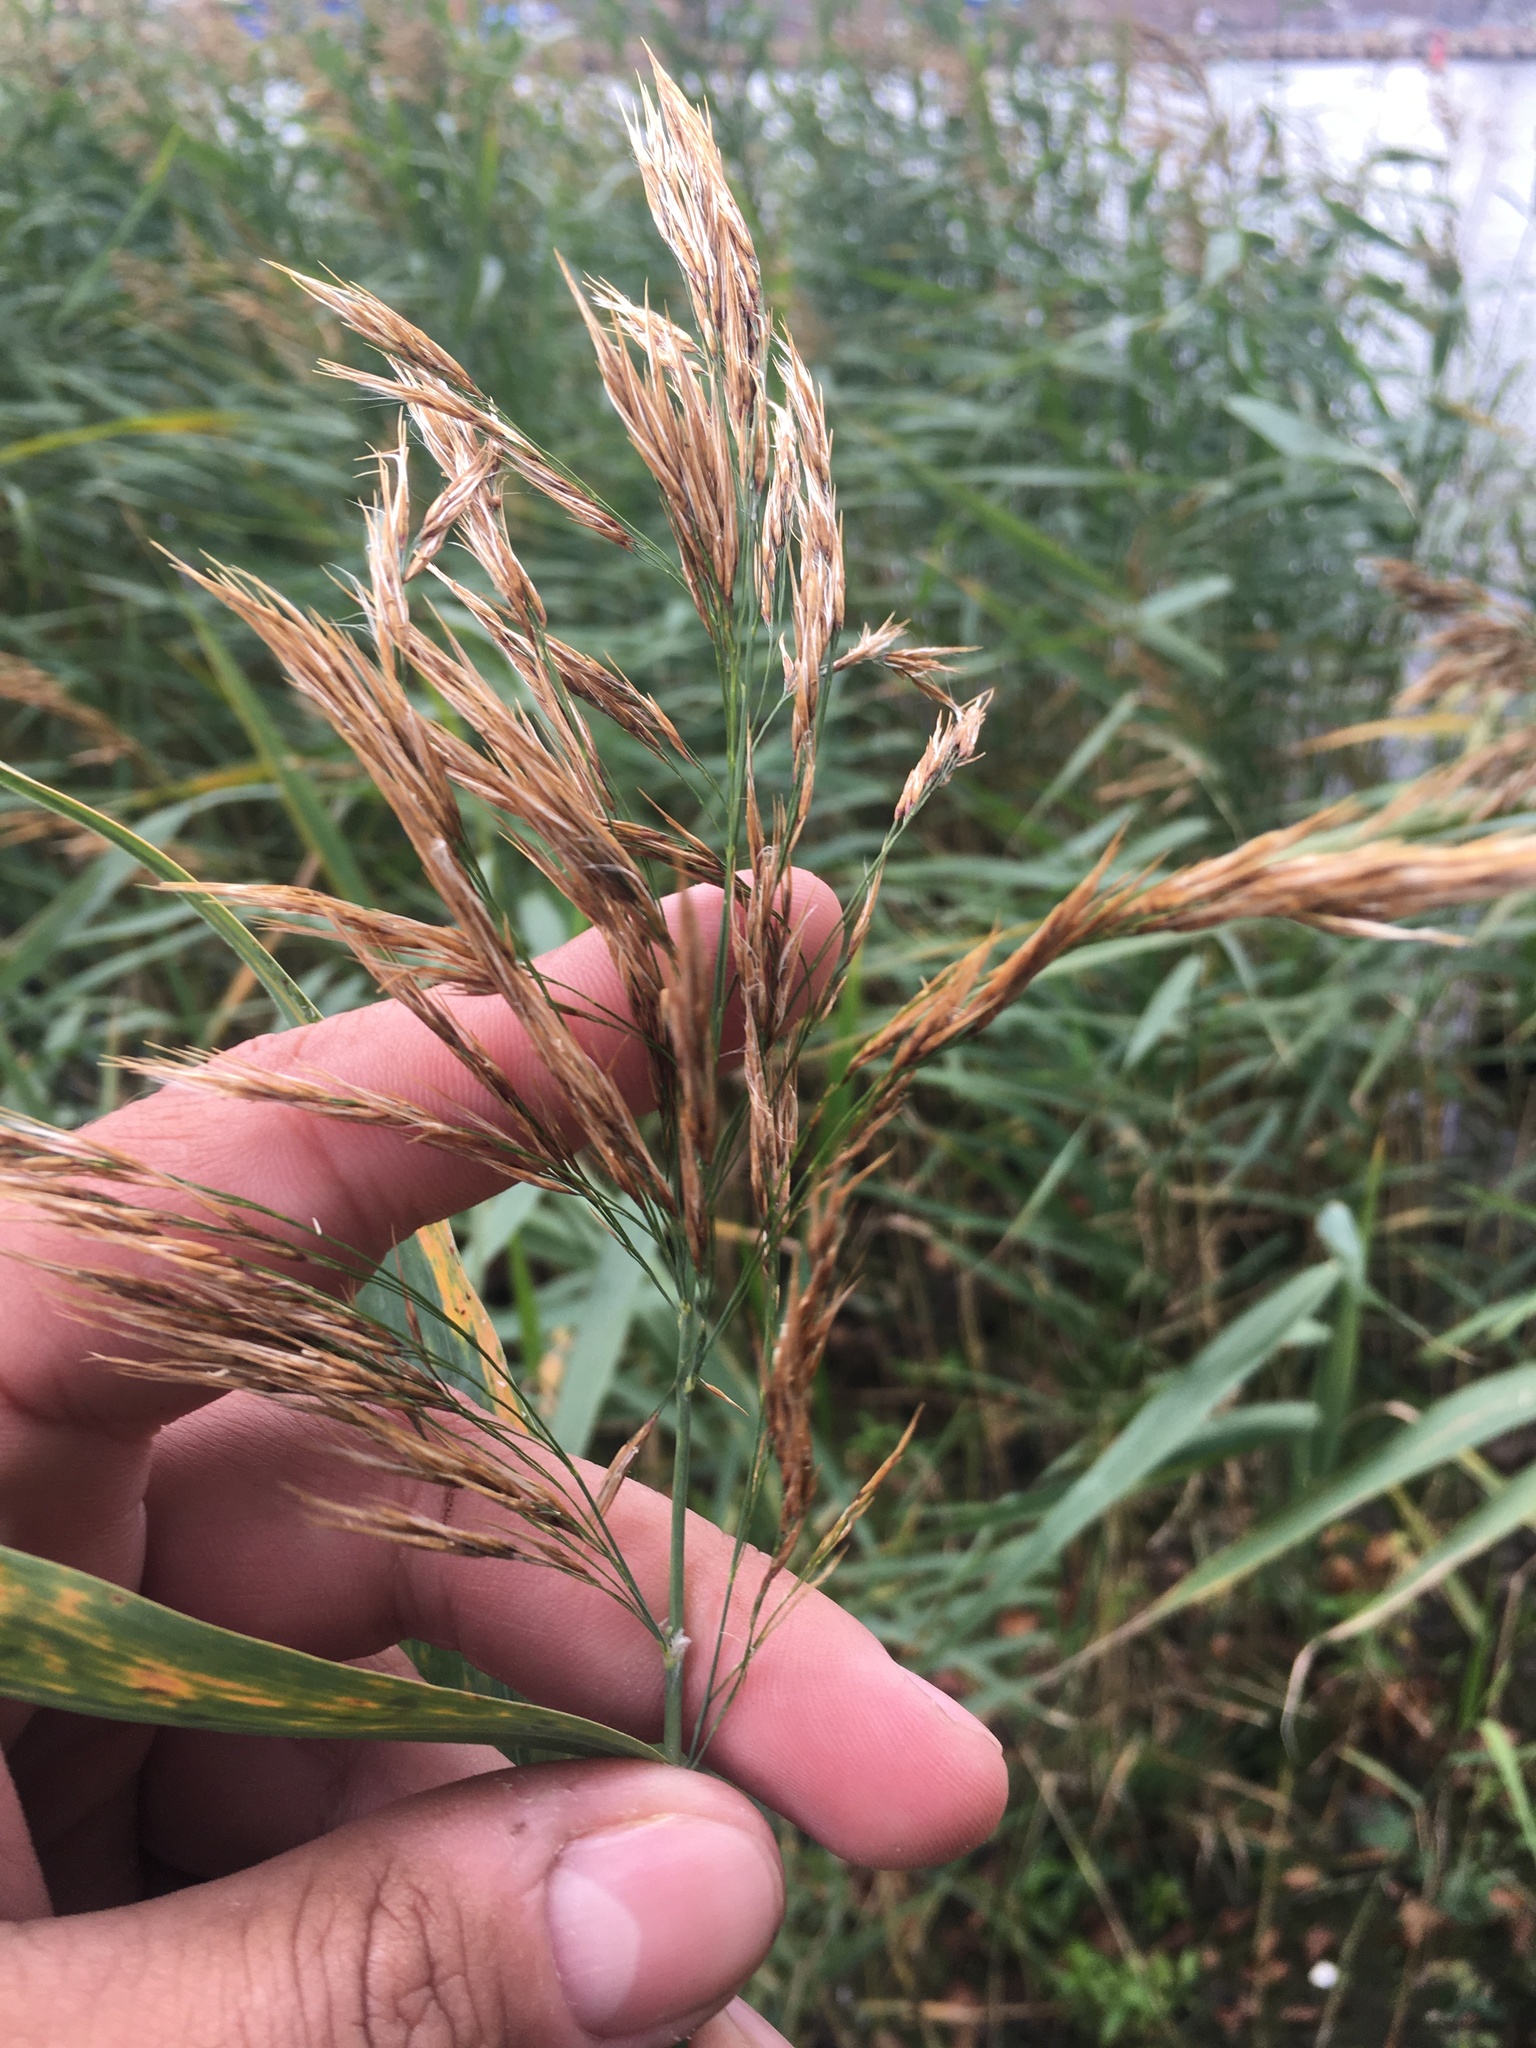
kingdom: Plantae
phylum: Tracheophyta
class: Liliopsida
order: Poales
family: Poaceae
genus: Phragmites
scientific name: Phragmites australis
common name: Common reed
